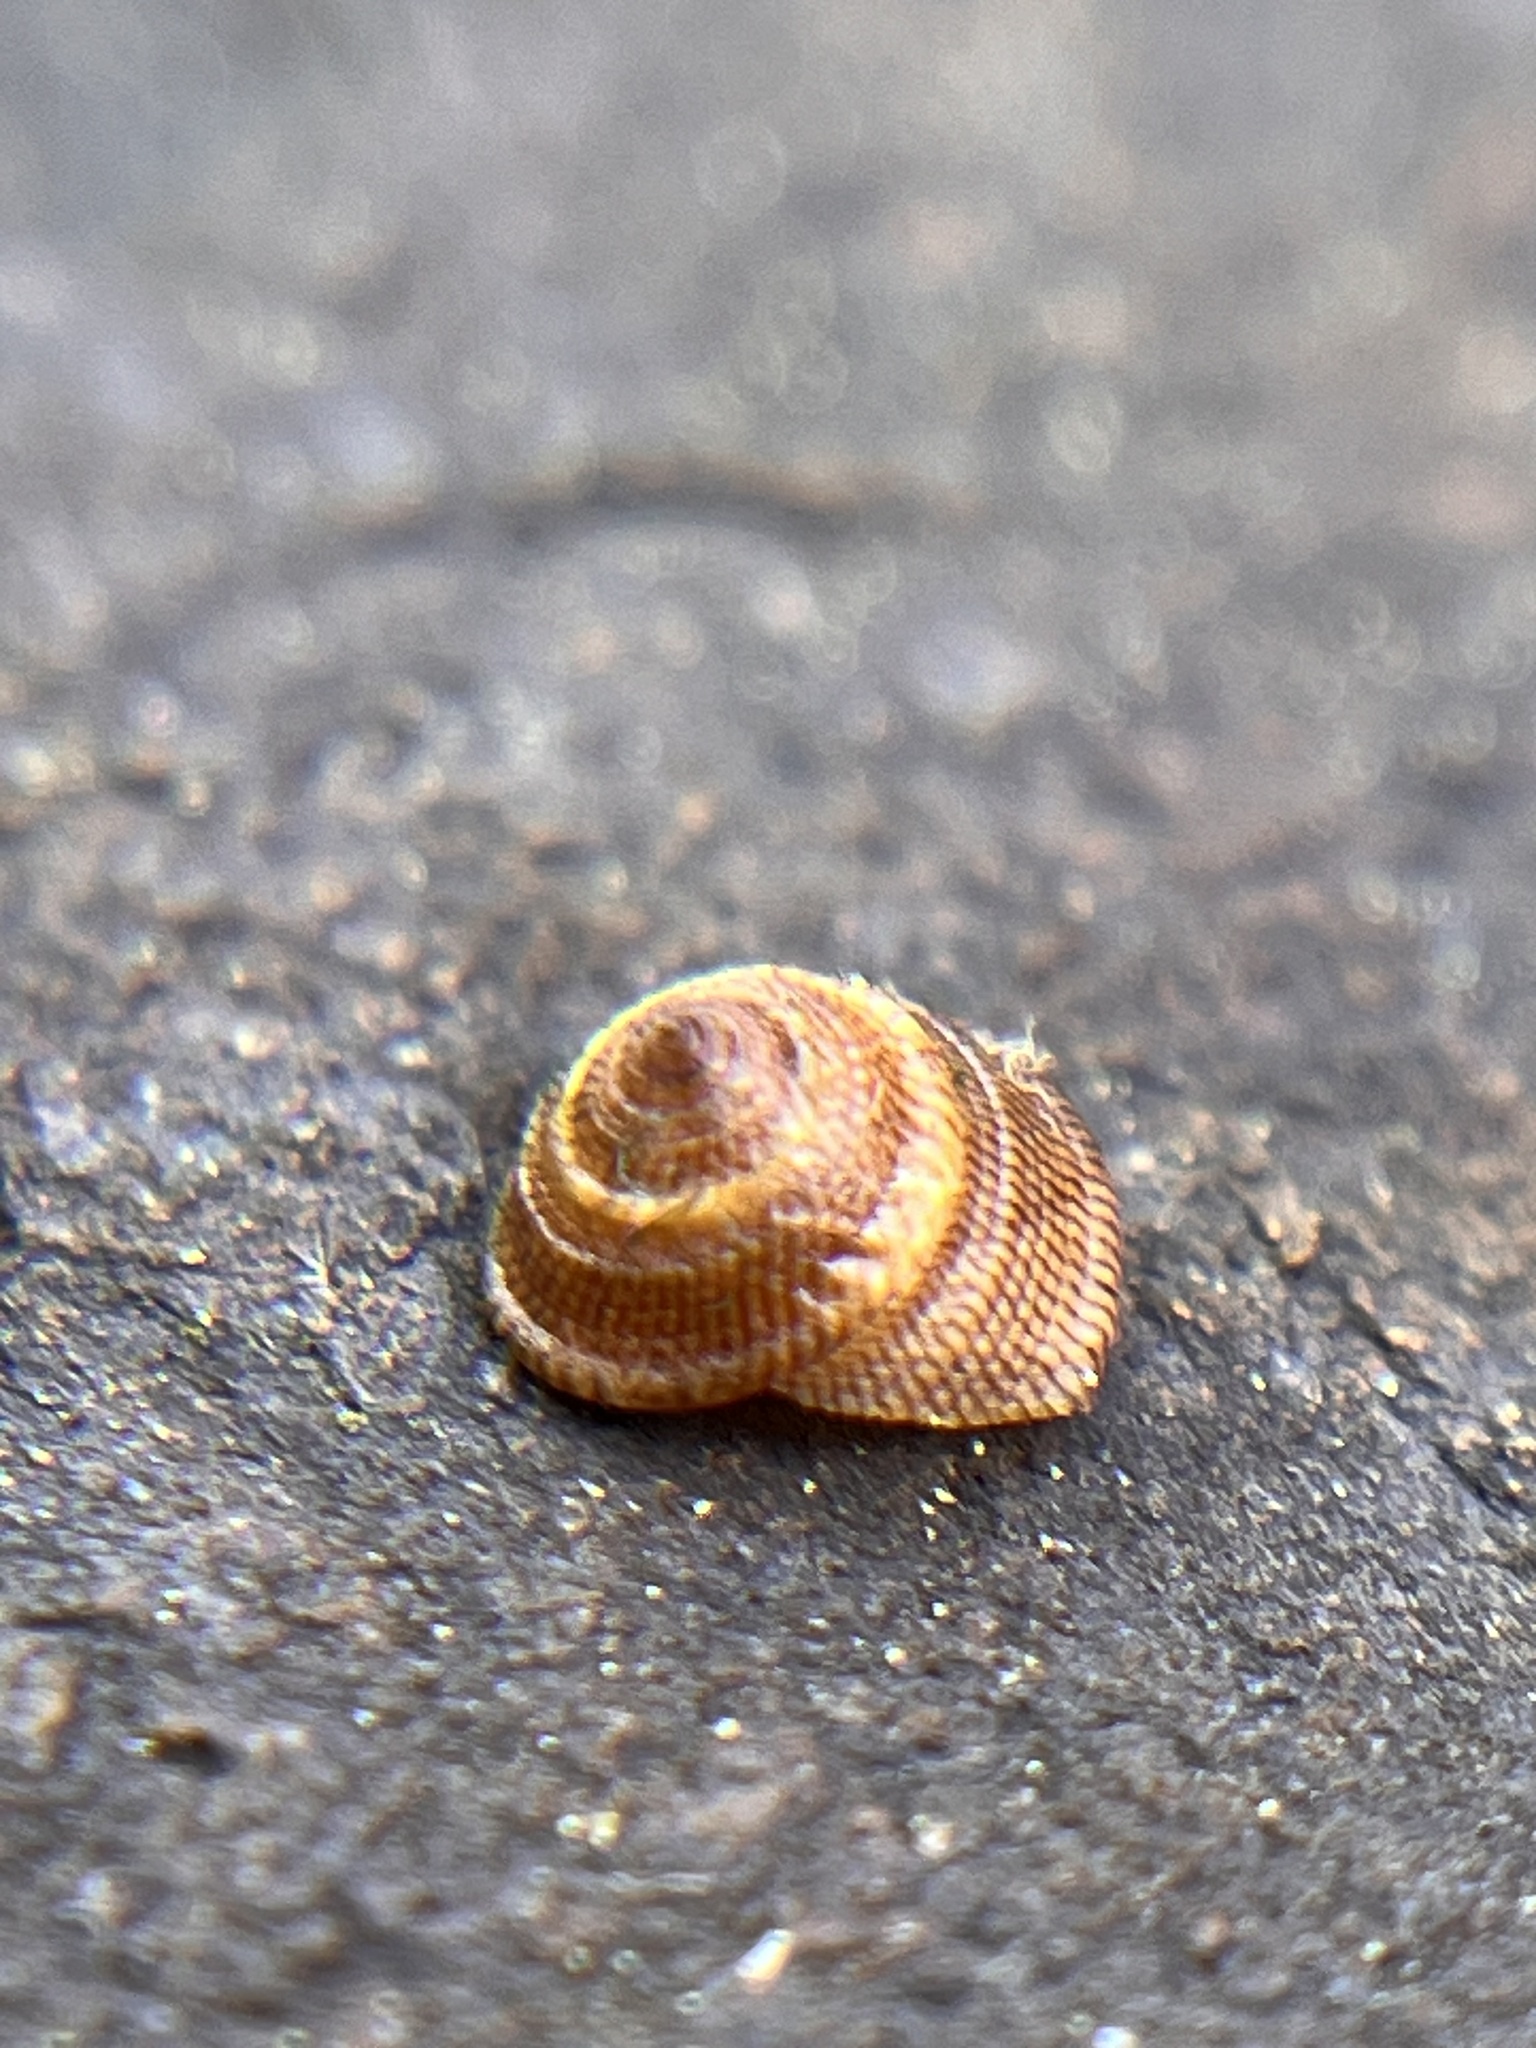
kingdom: Animalia
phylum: Mollusca
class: Gastropoda
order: Littorinimorpha
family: Littorinidae
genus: Peasiella
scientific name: Peasiella tantilla
